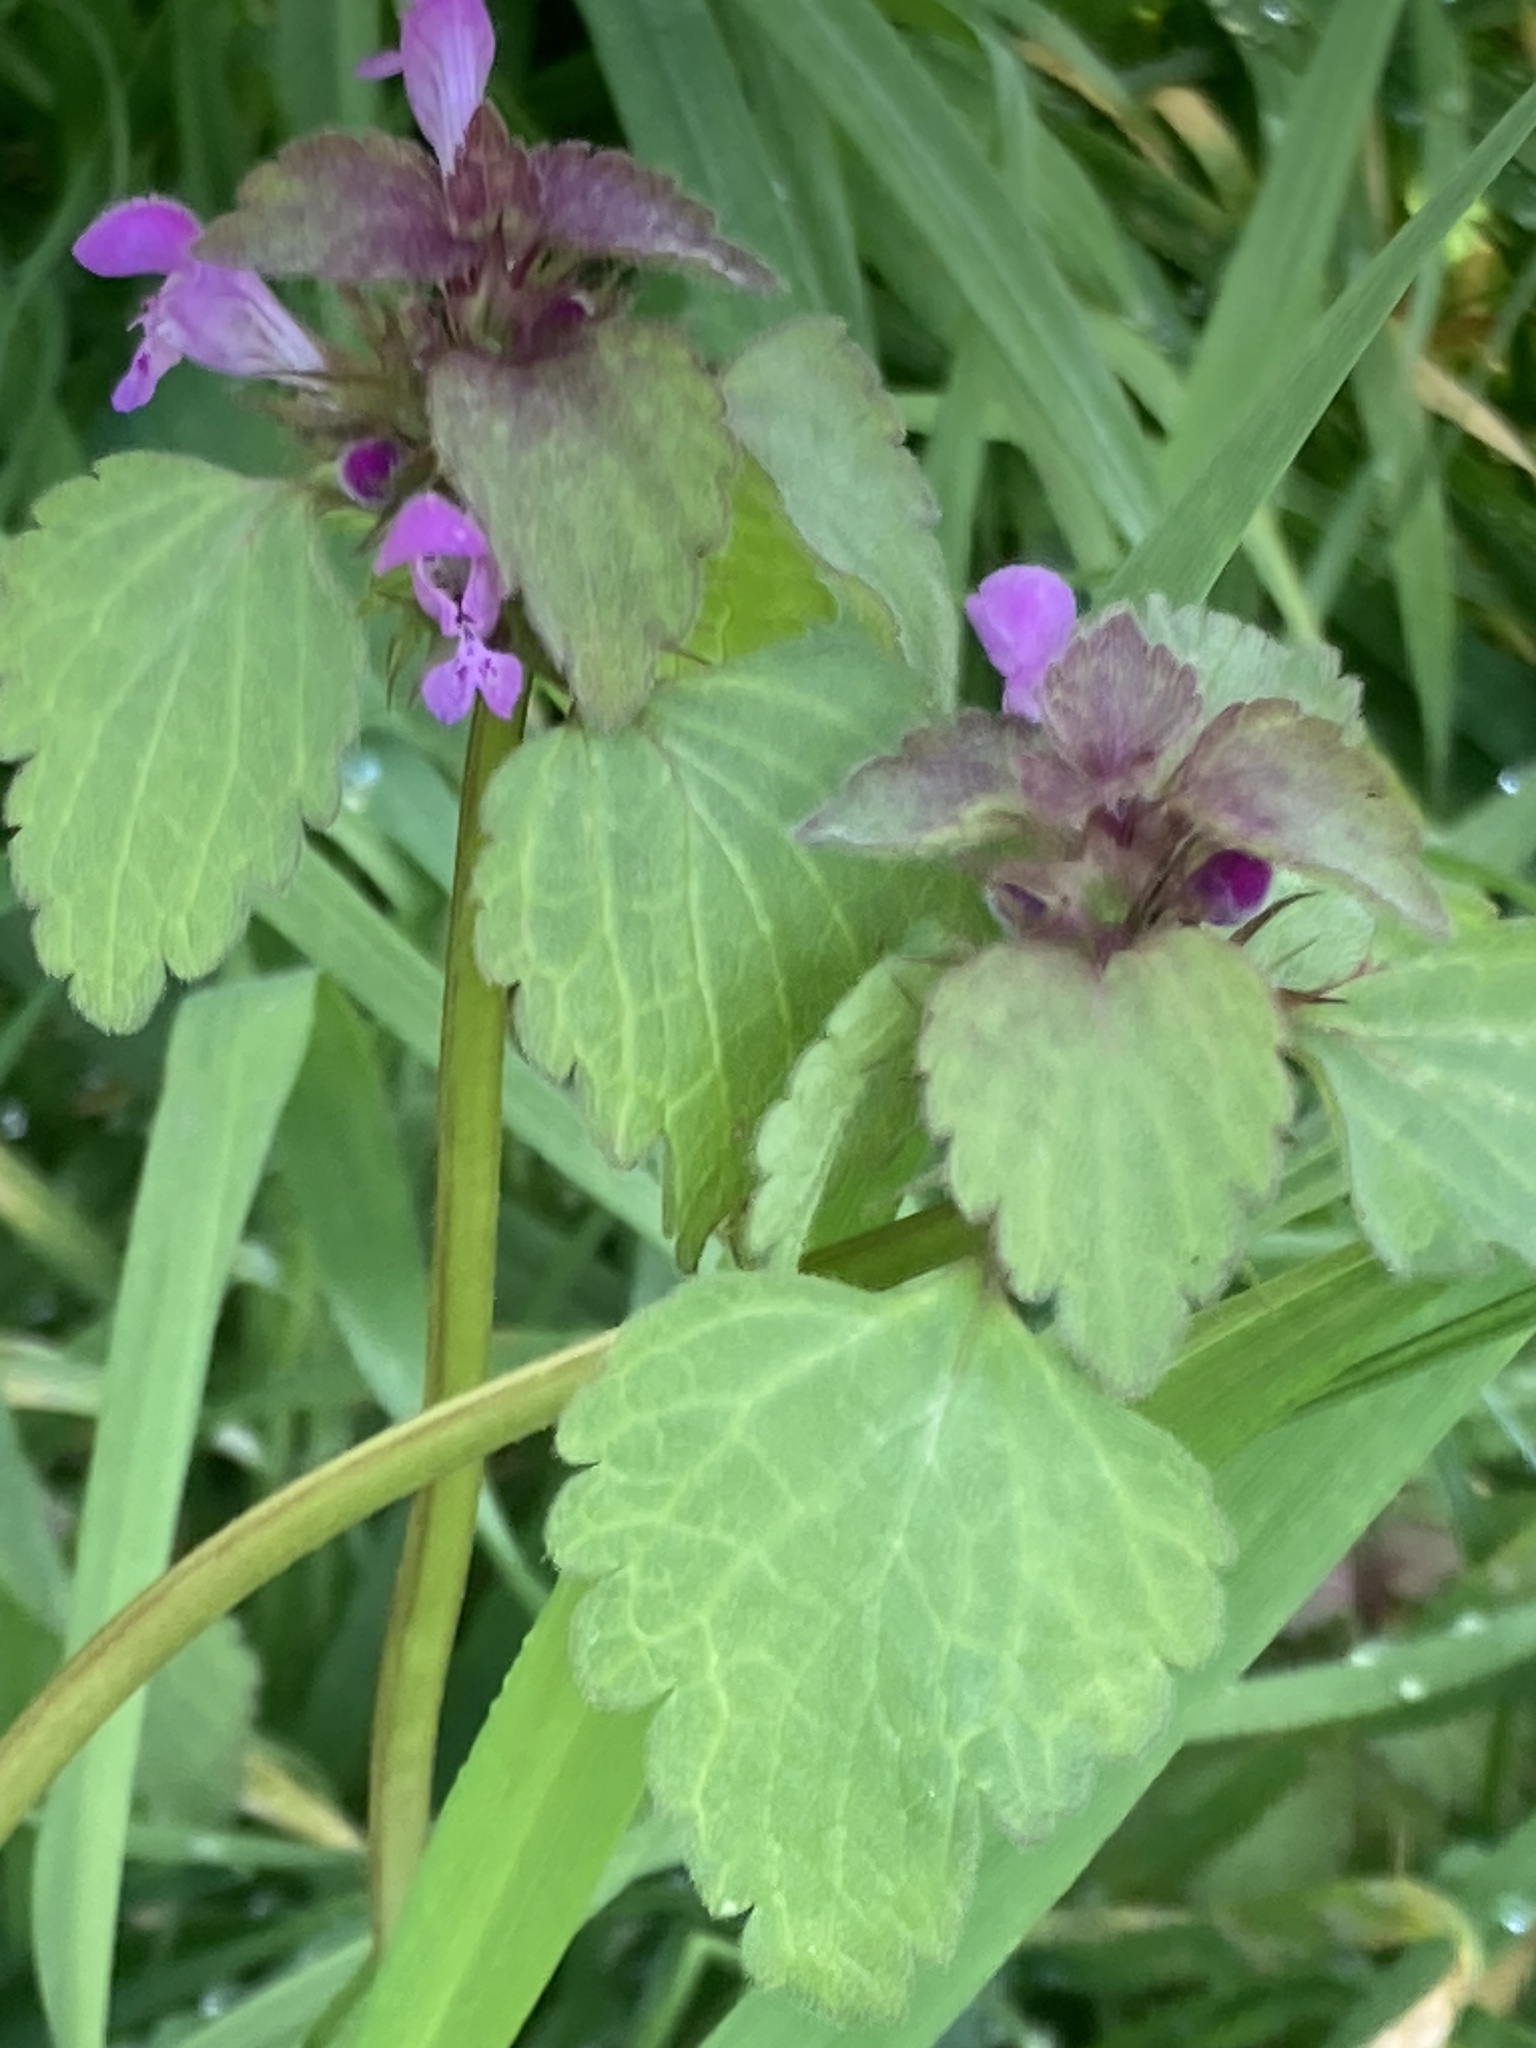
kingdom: Plantae
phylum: Tracheophyta
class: Magnoliopsida
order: Lamiales
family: Lamiaceae
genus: Lamium
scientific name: Lamium purpureum
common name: Red dead-nettle
